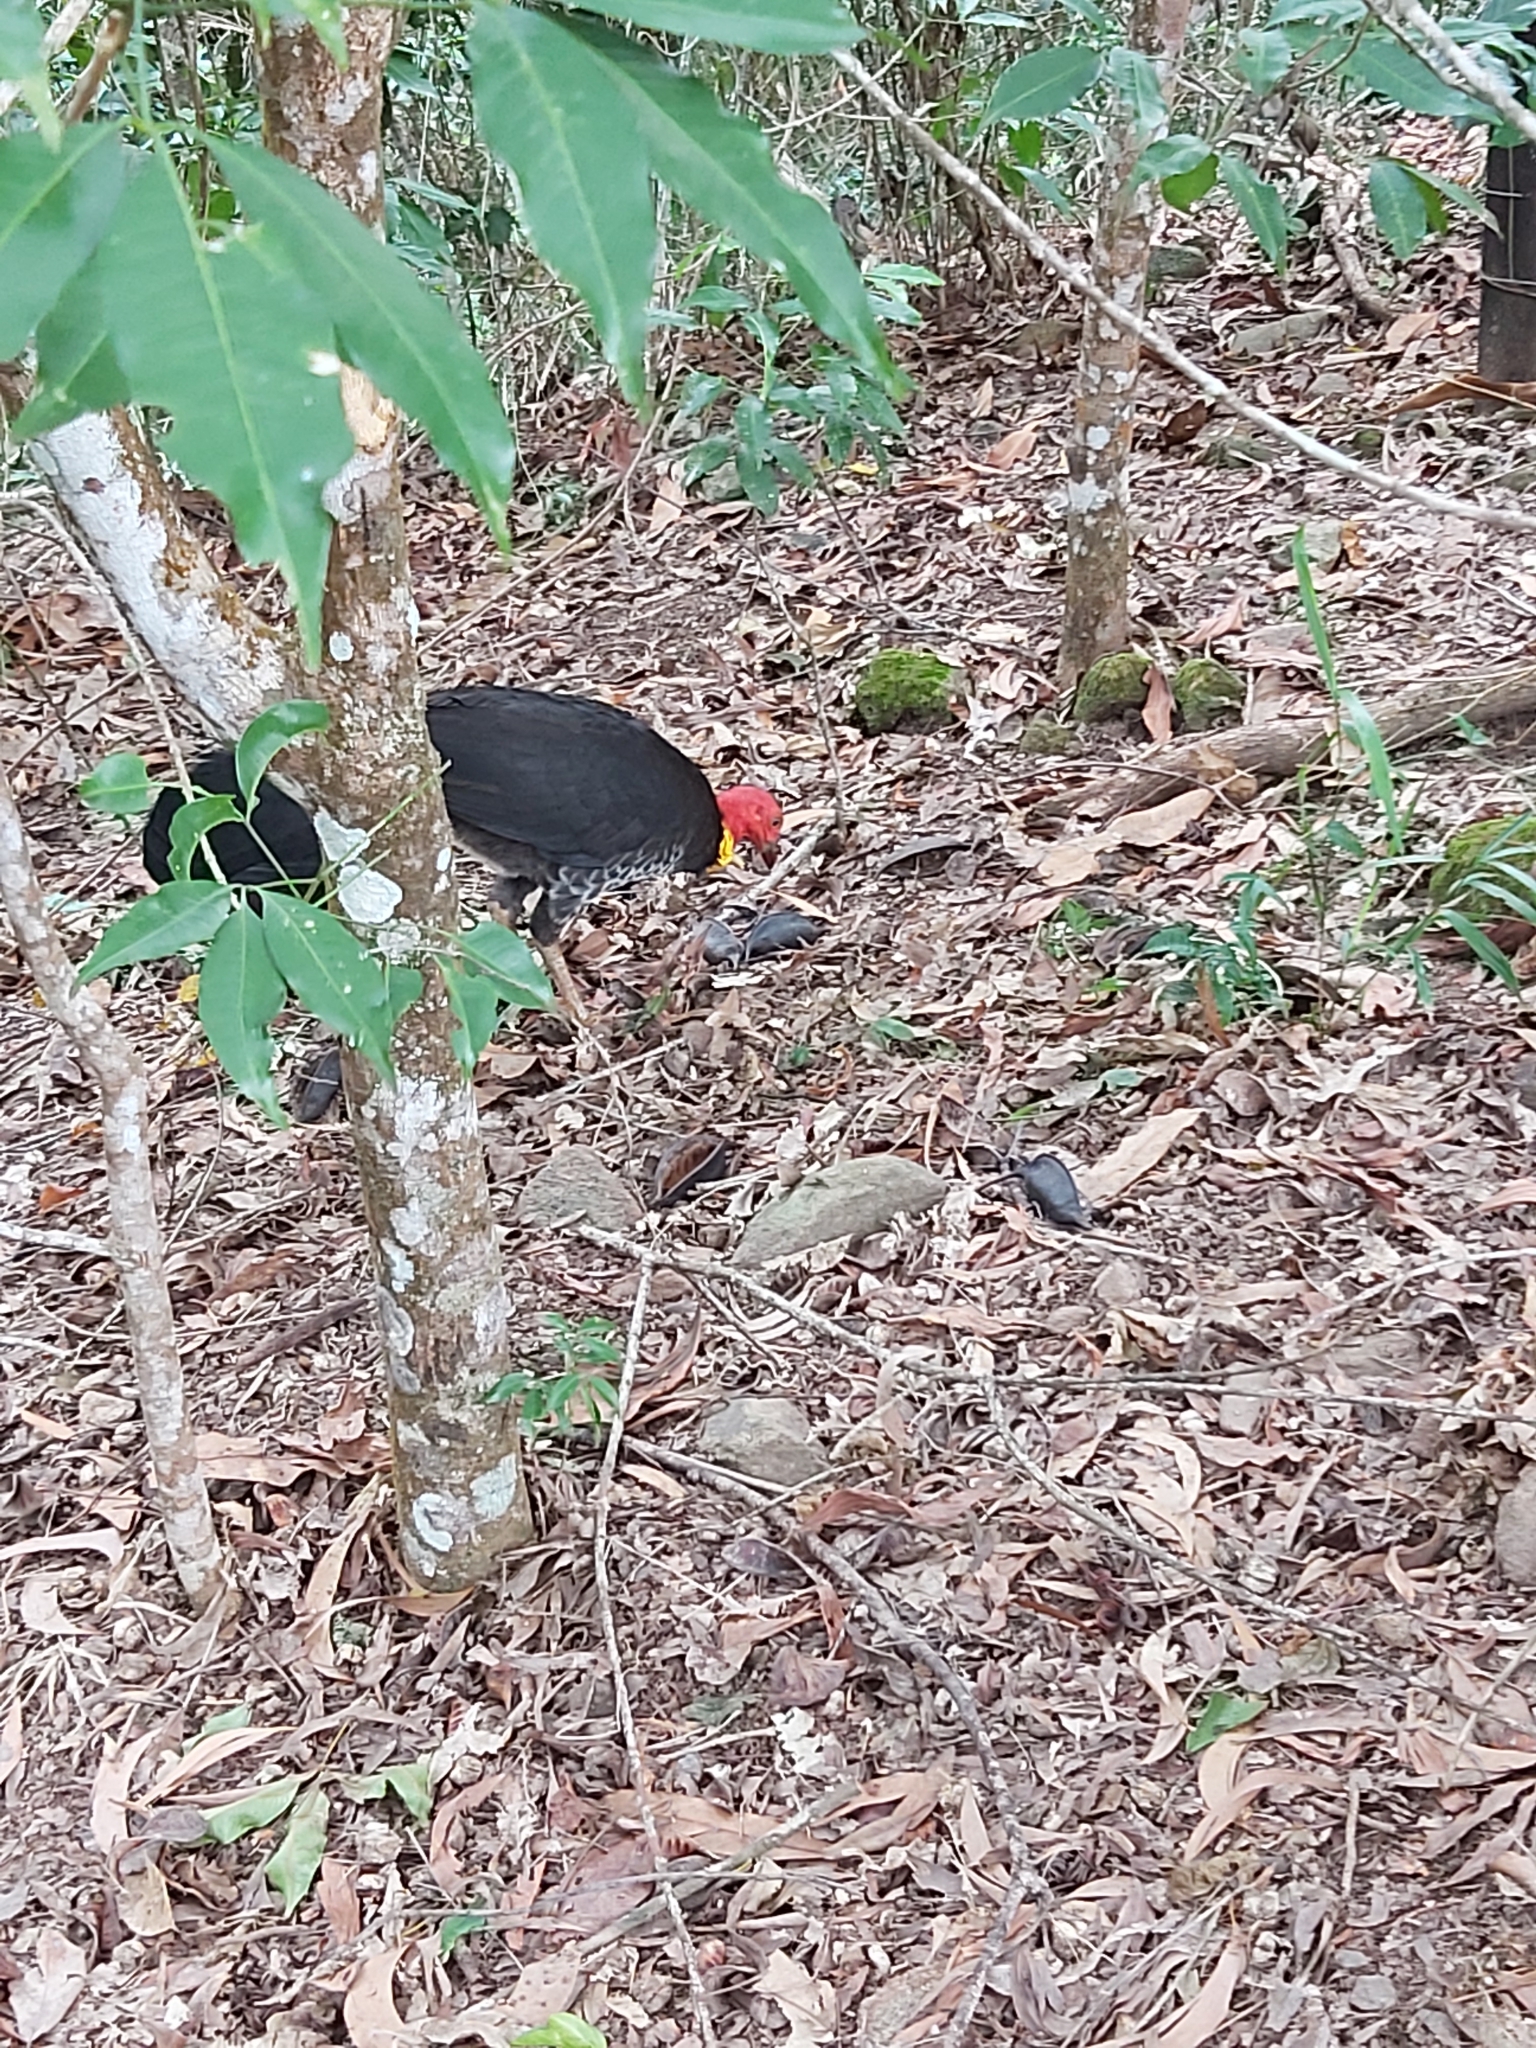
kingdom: Animalia
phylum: Chordata
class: Aves
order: Galliformes
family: Megapodiidae
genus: Alectura
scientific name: Alectura lathami
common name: Australian brushturkey
